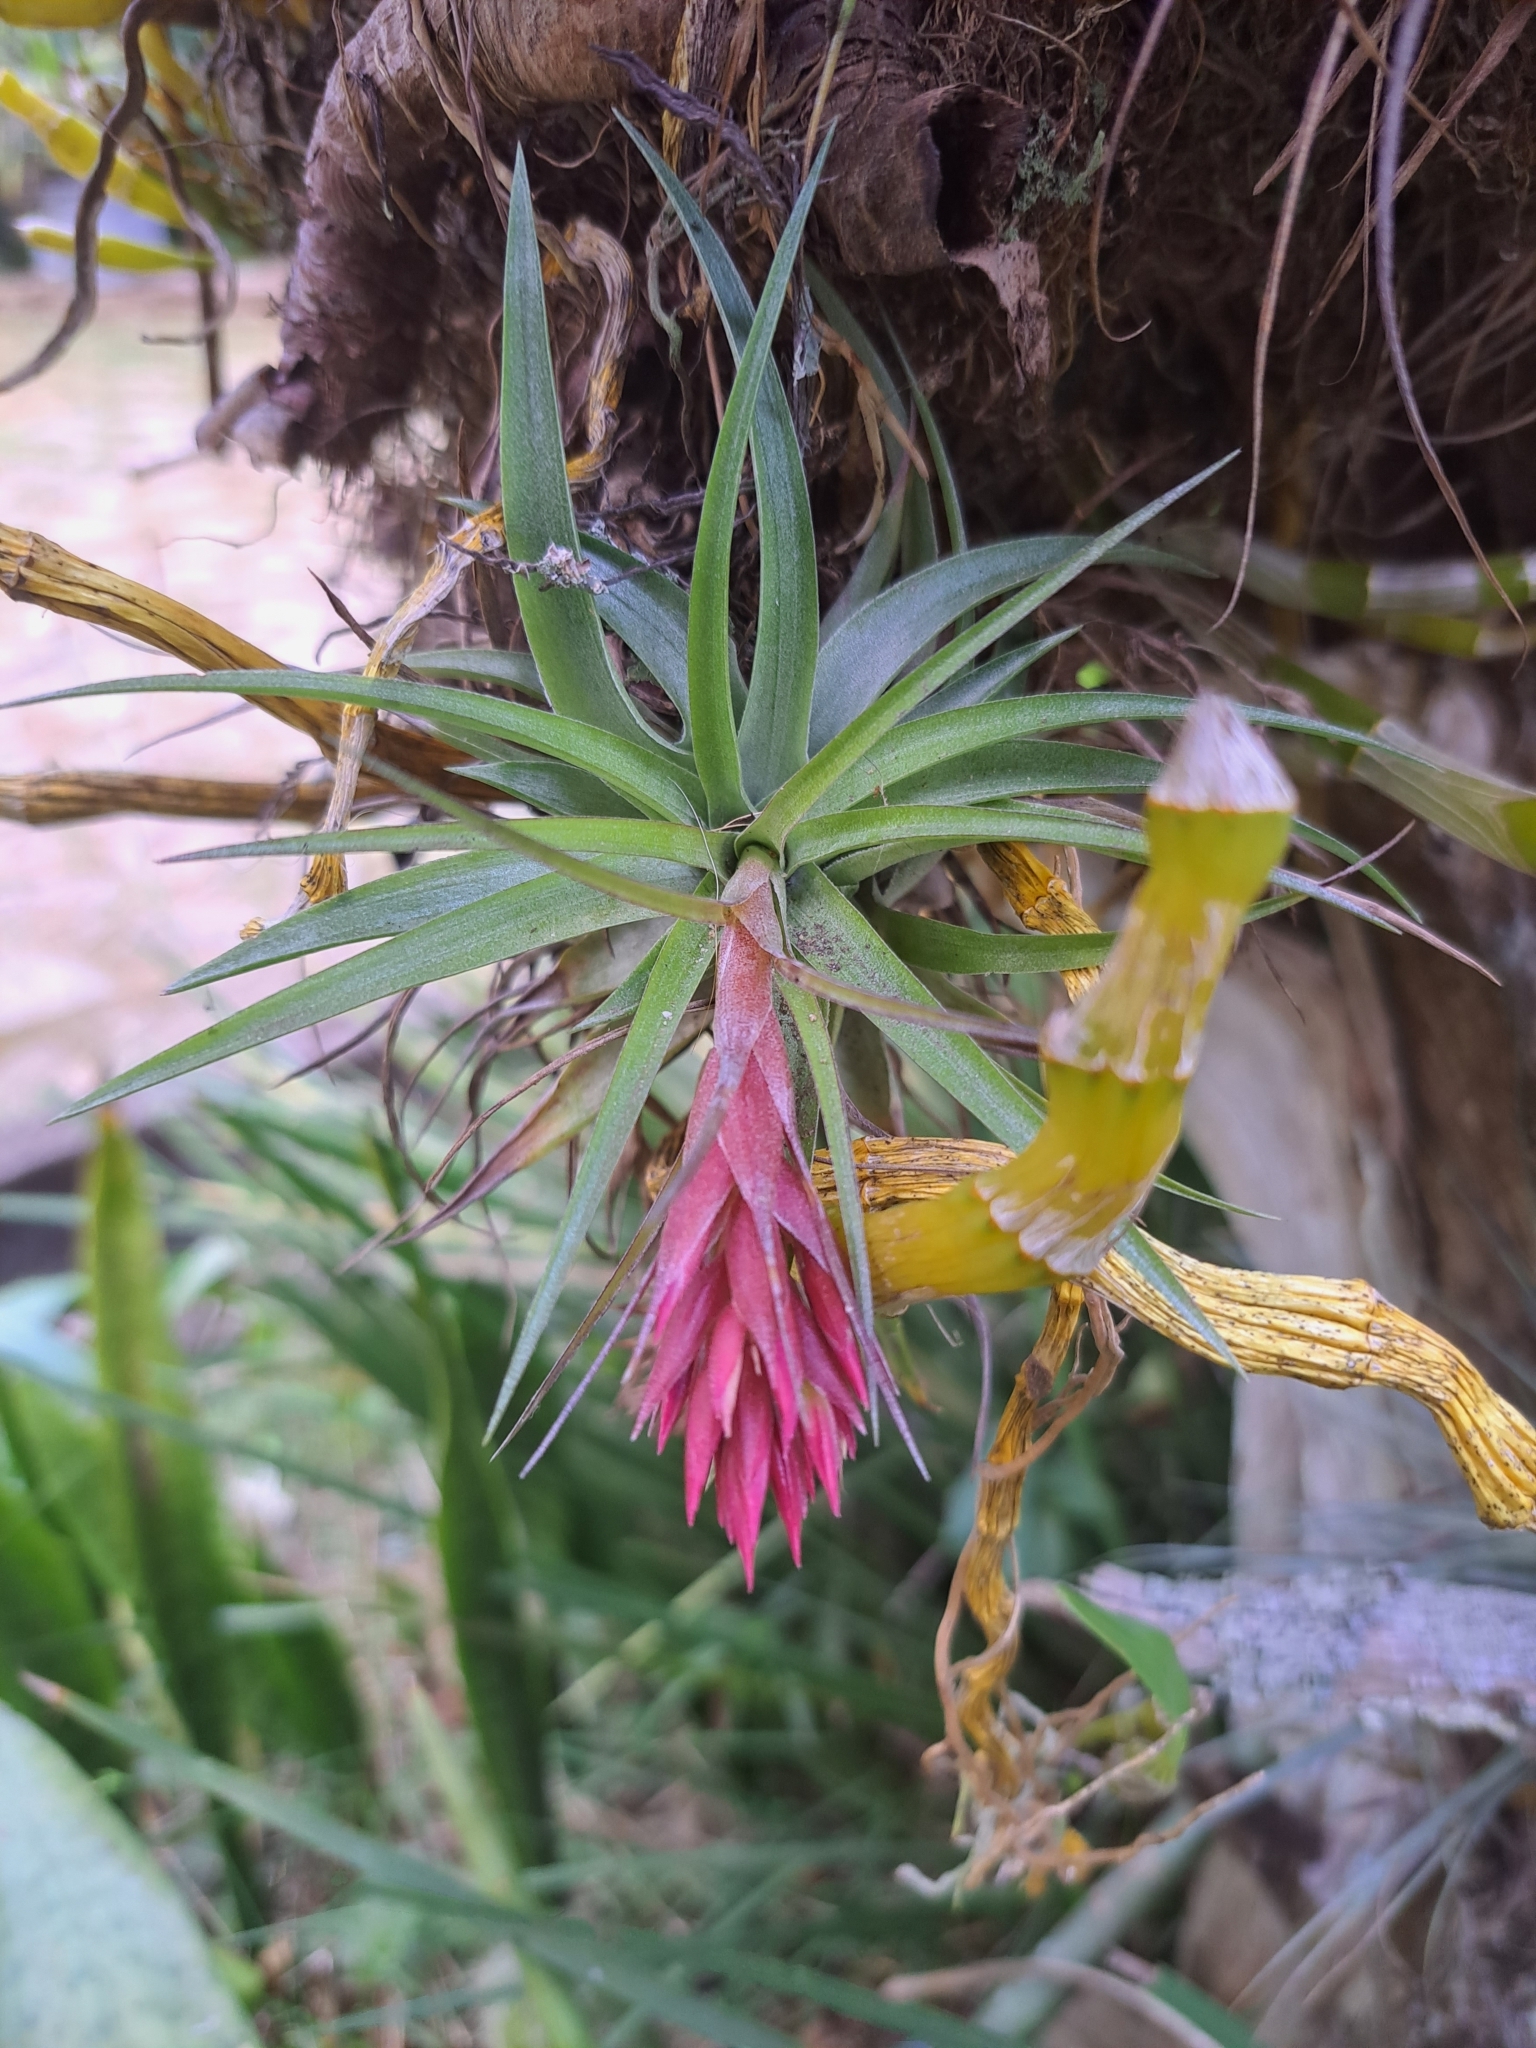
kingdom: Plantae
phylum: Tracheophyta
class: Liliopsida
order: Poales
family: Bromeliaceae
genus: Tillandsia
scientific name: Tillandsia geminiflora
